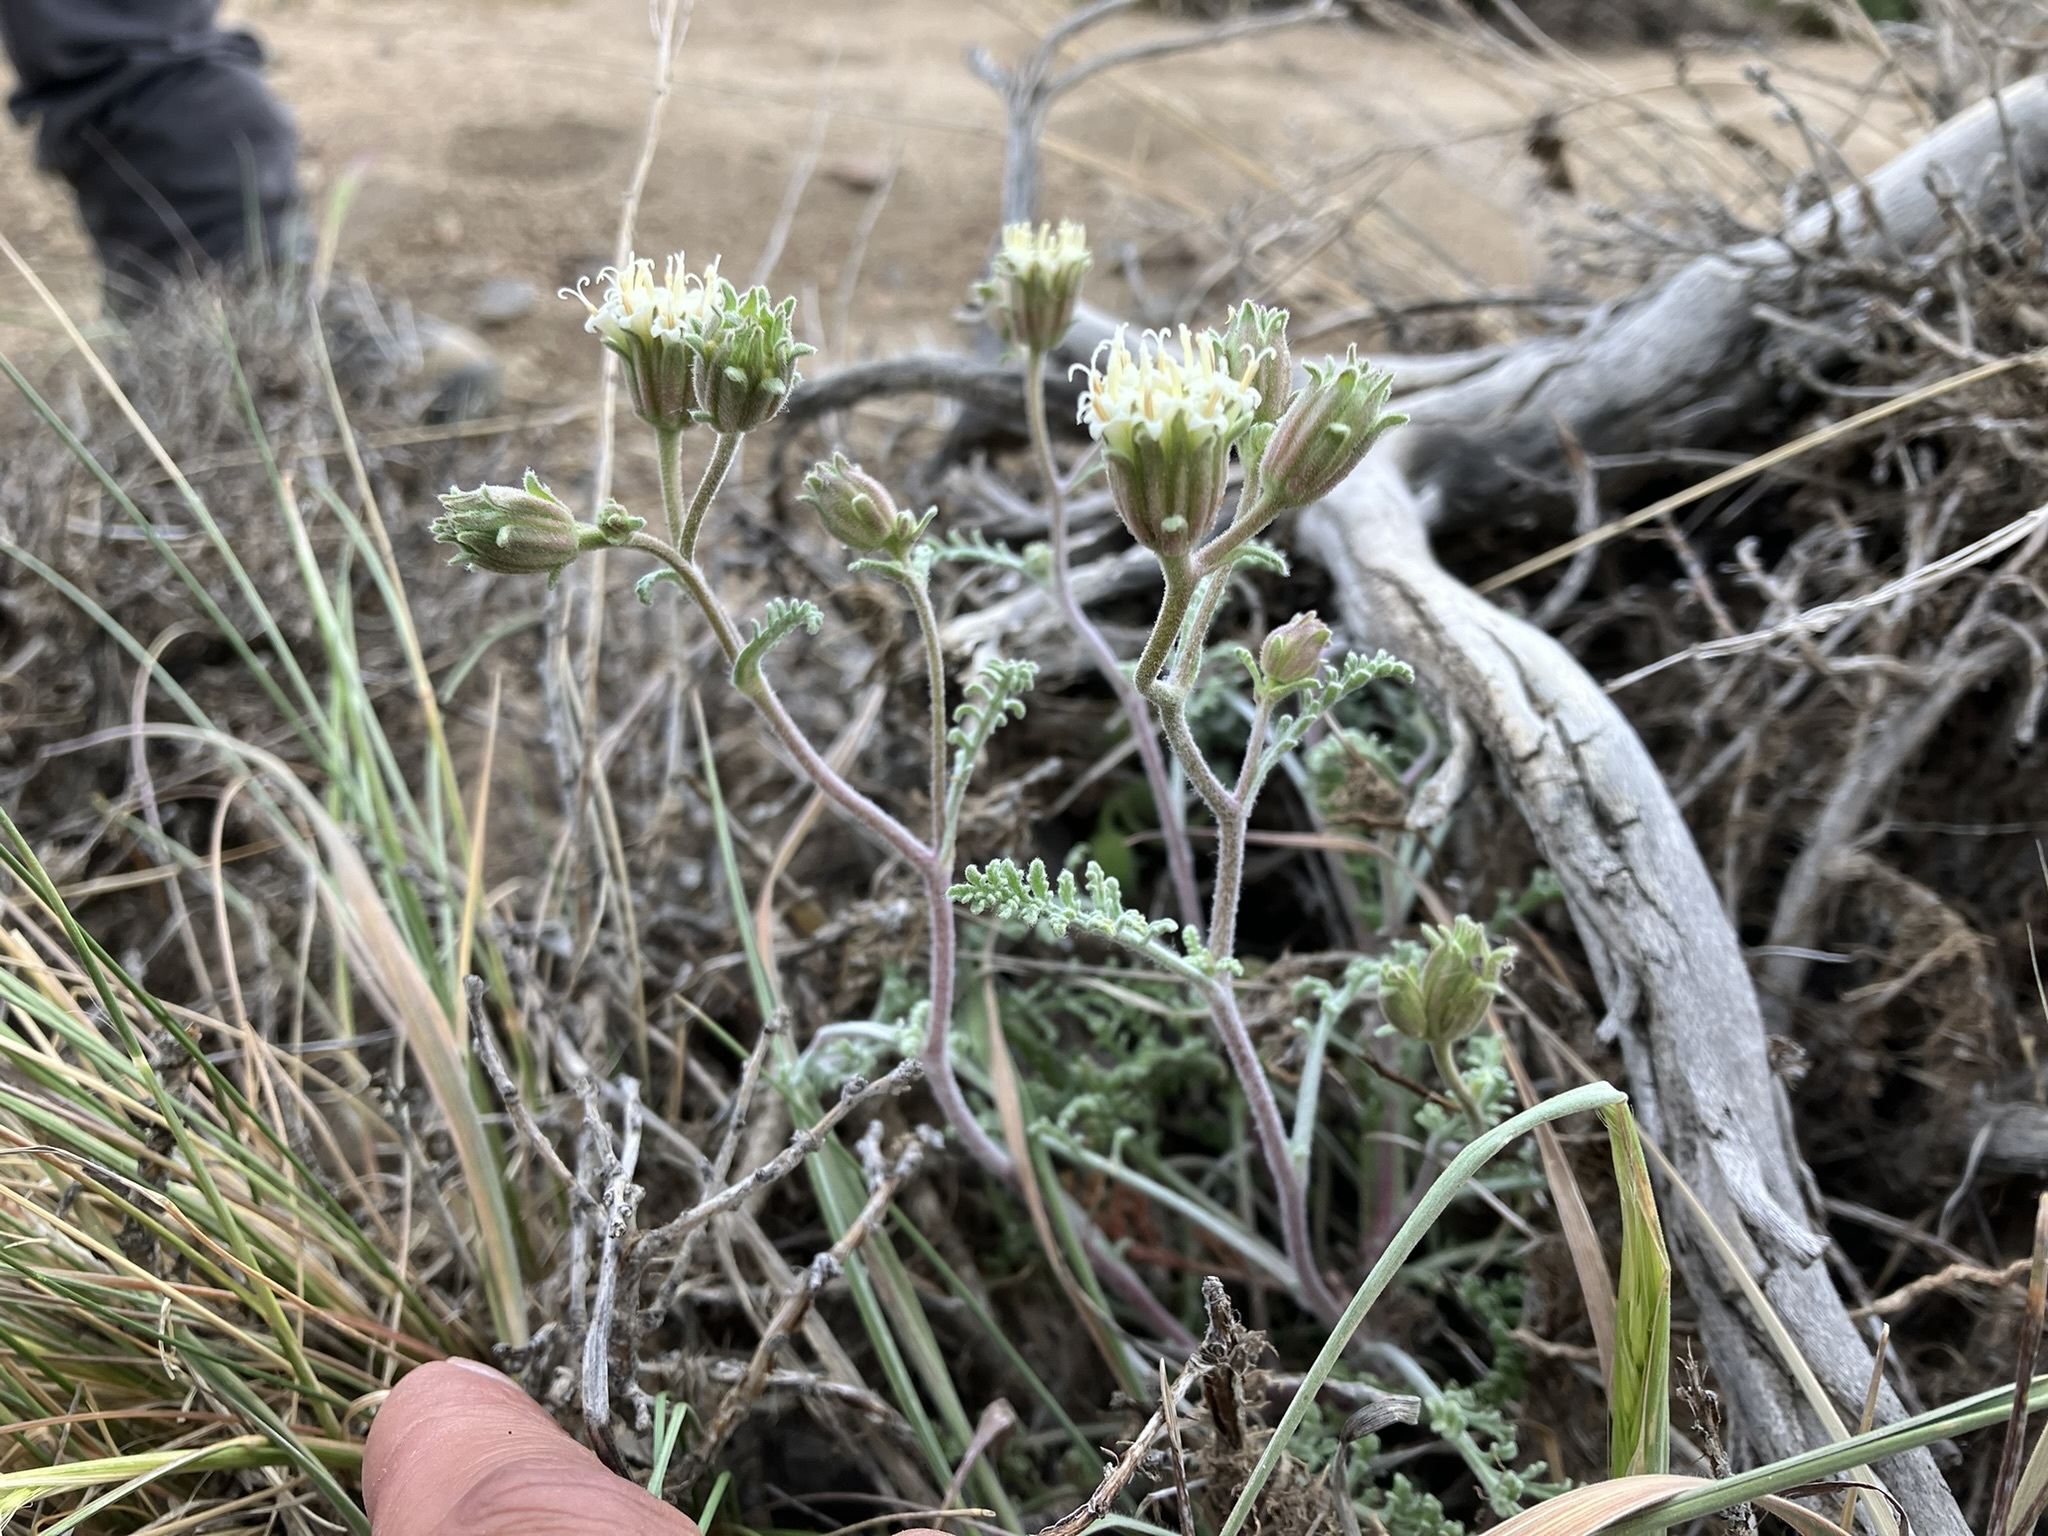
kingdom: Plantae
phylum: Tracheophyta
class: Magnoliopsida
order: Asterales
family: Asteraceae
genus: Chaenactis
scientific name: Chaenactis douglasii
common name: Hoary pincushion
